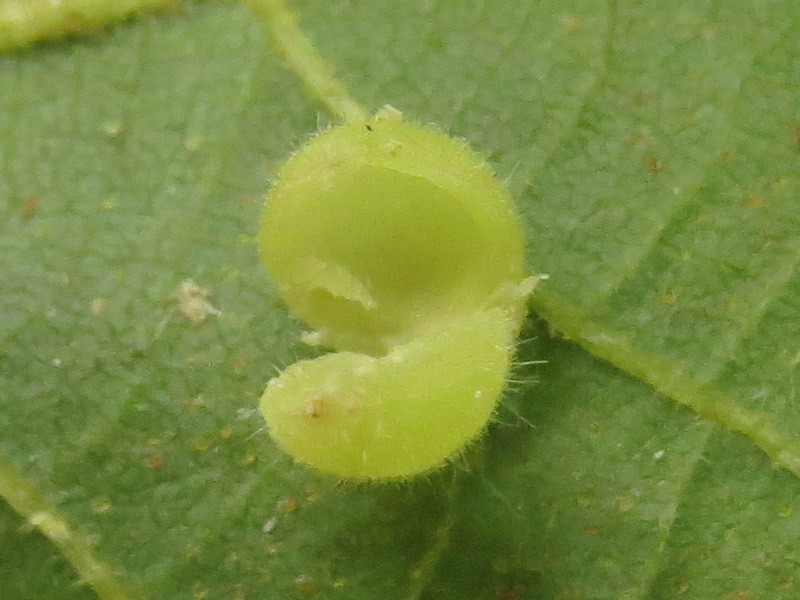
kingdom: Animalia
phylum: Arthropoda
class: Insecta
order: Diptera
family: Cecidomyiidae
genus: Caryomyia
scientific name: Caryomyia cilidolium
